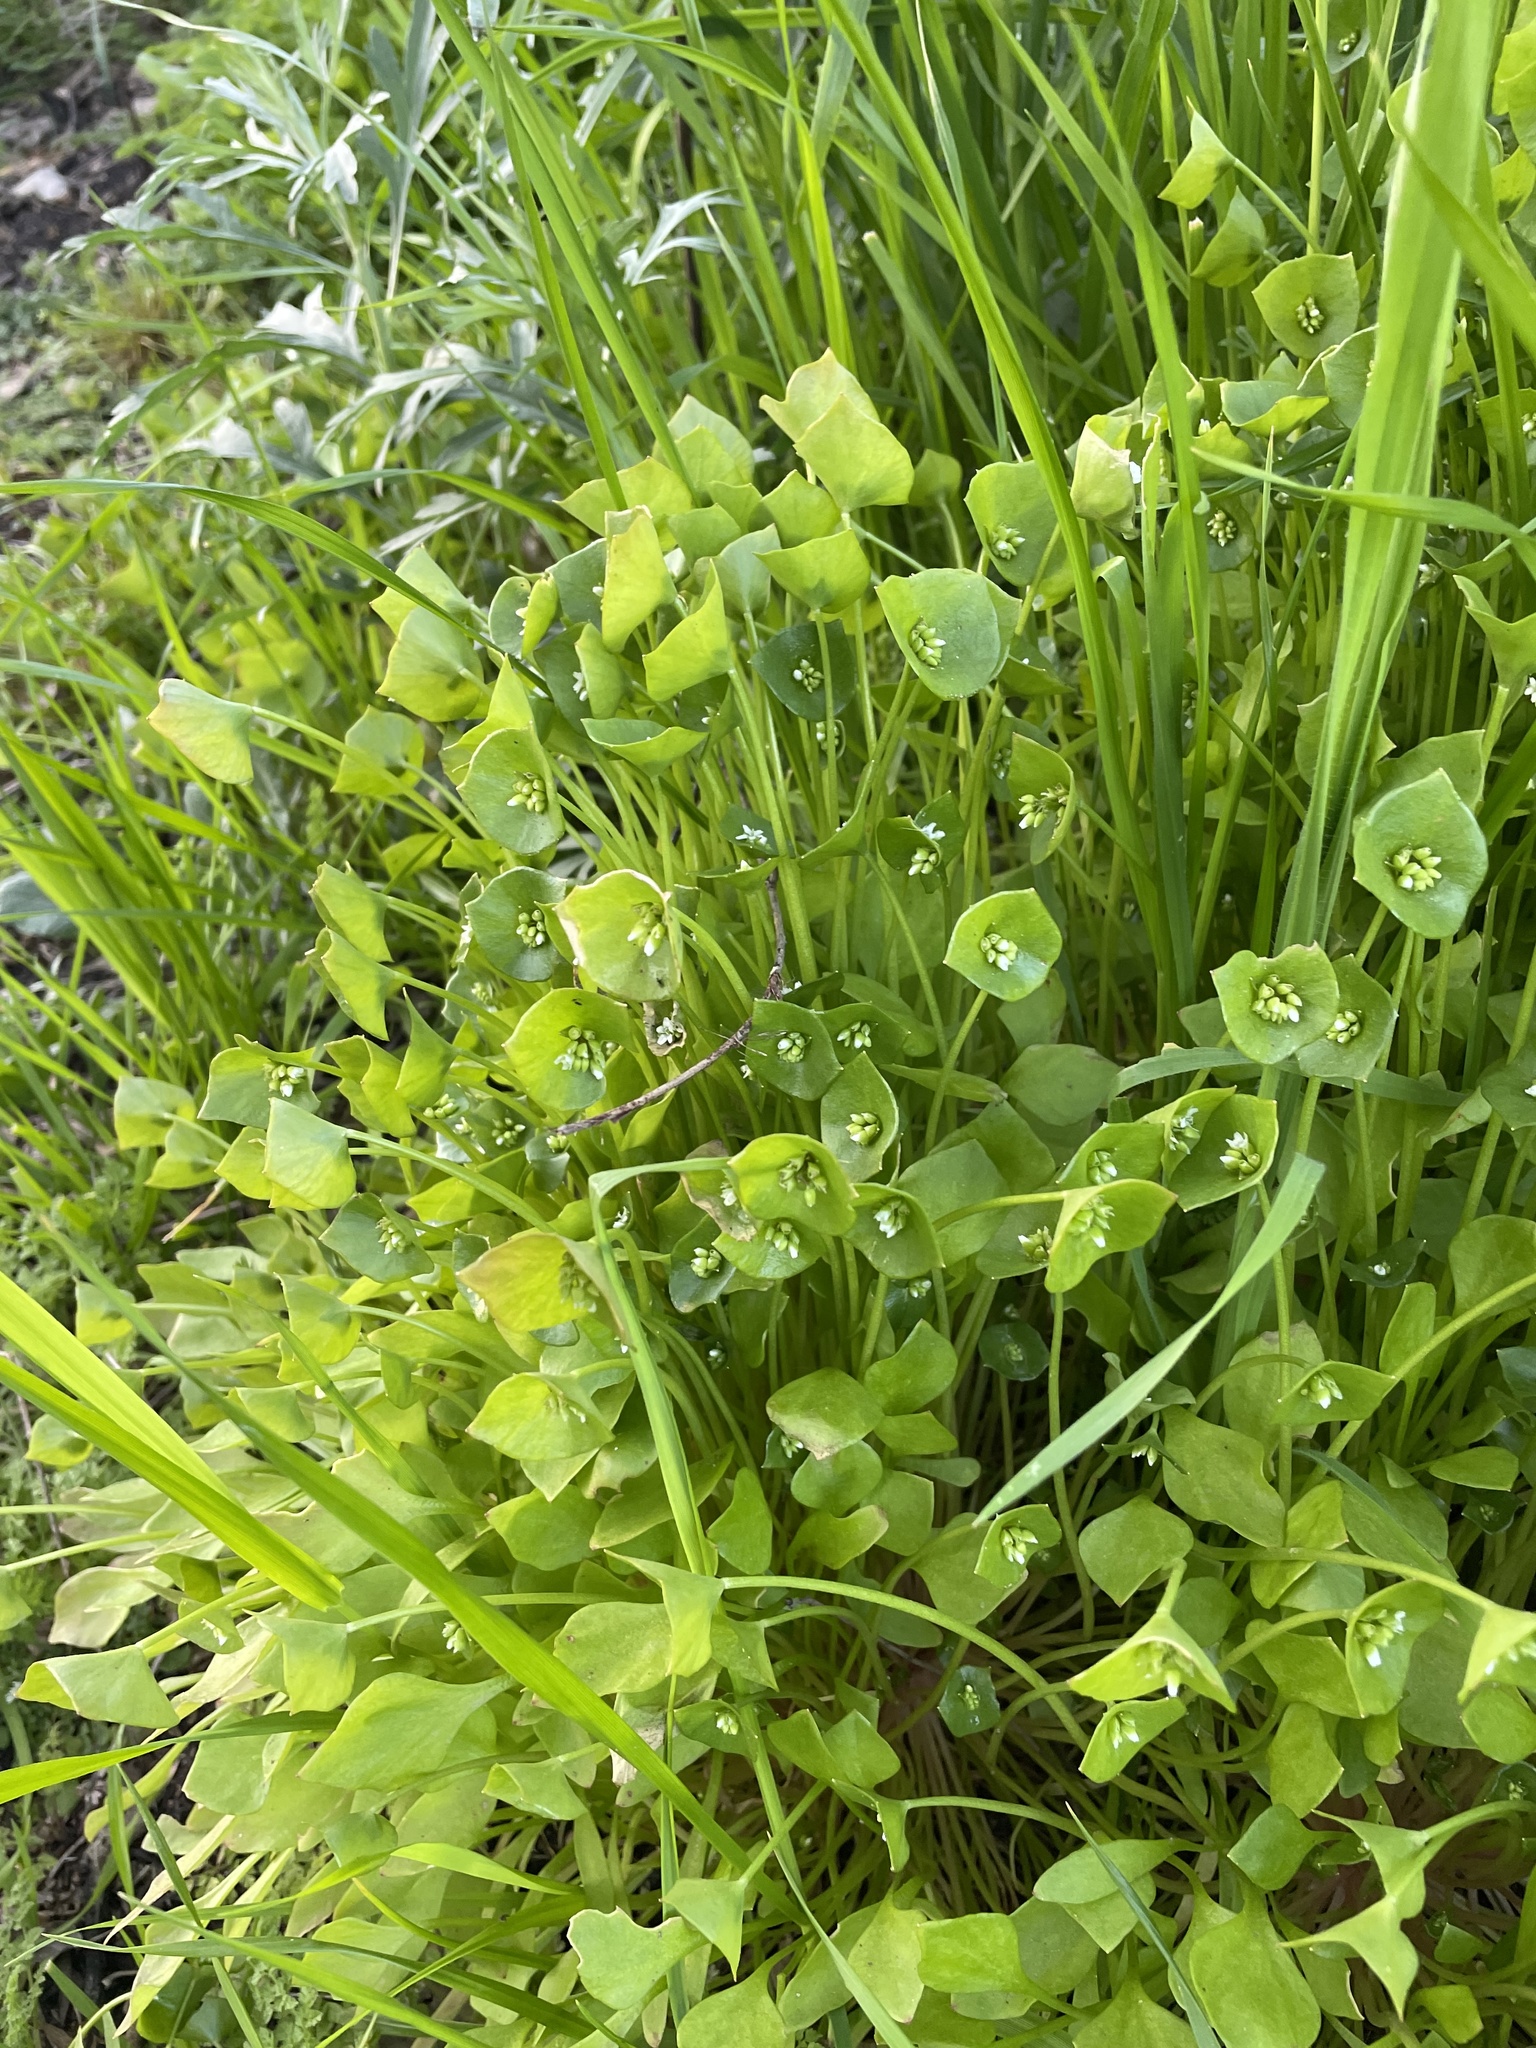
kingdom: Plantae
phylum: Tracheophyta
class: Magnoliopsida
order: Caryophyllales
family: Montiaceae
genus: Claytonia
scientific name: Claytonia perfoliata
